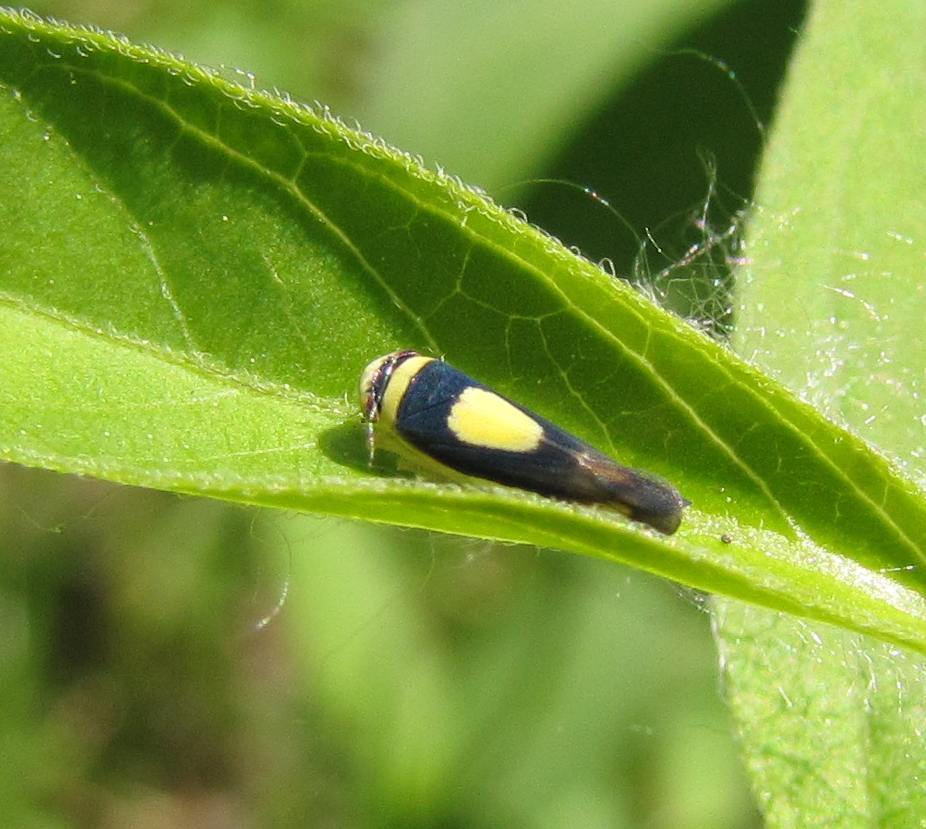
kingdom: Animalia
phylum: Arthropoda
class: Insecta
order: Hemiptera
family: Cicadellidae
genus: Colladonus
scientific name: Colladonus clitellarius
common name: The saddleback leafhopper
